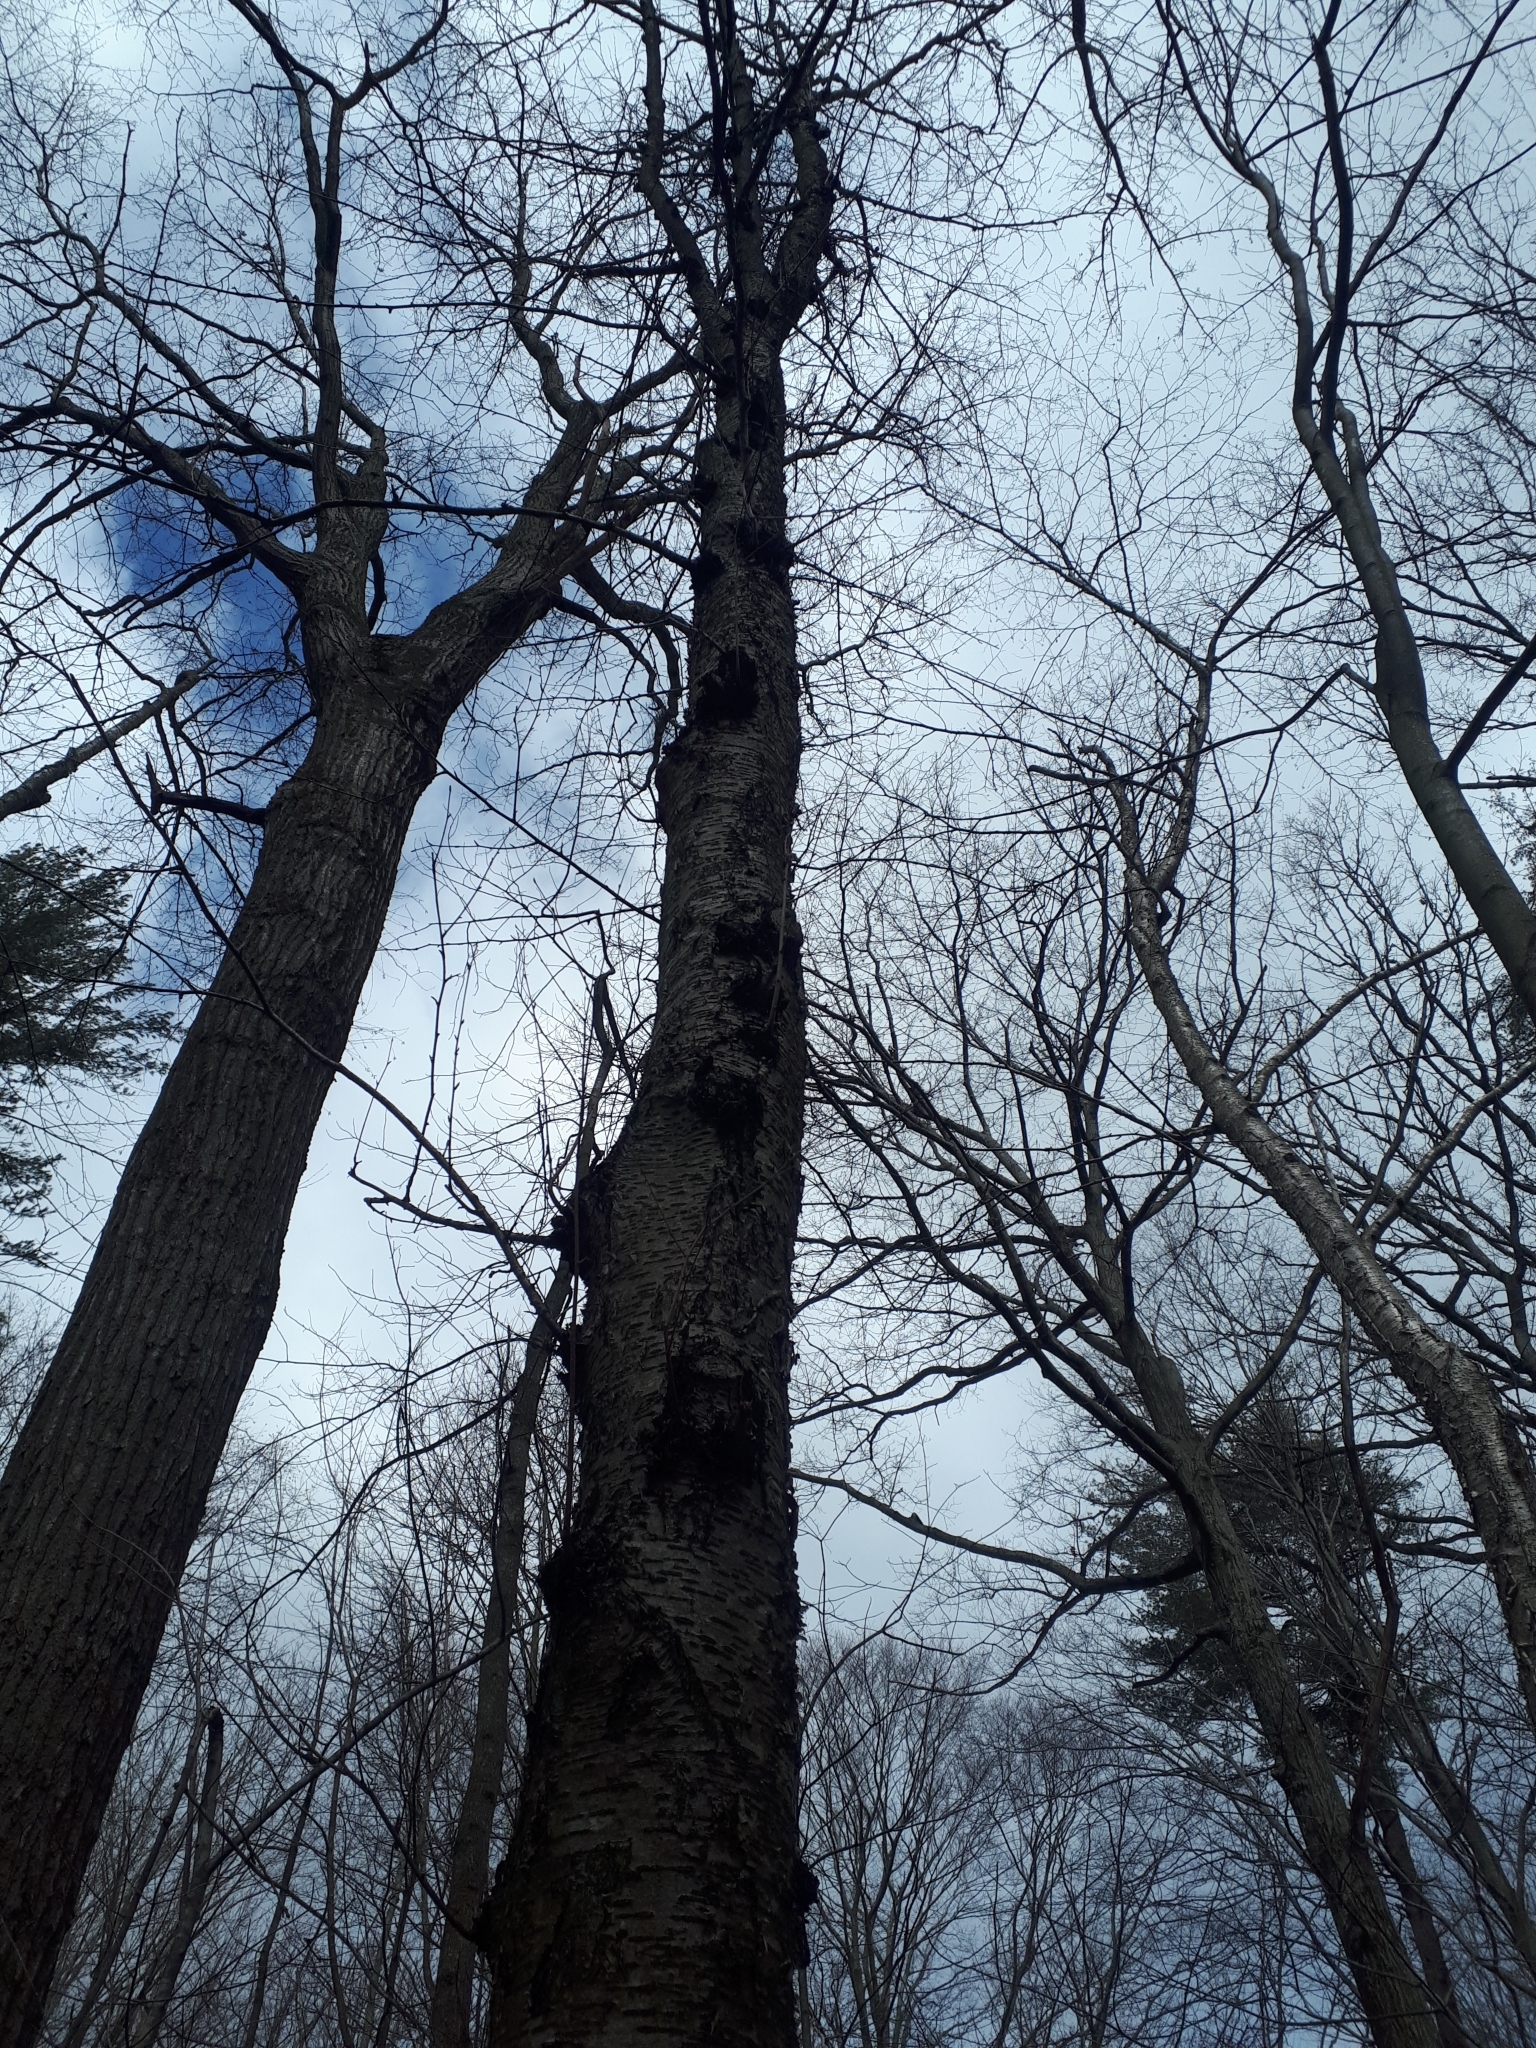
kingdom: Plantae
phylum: Tracheophyta
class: Magnoliopsida
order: Fagales
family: Betulaceae
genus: Betula
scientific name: Betula alleghaniensis
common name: Yellow birch
